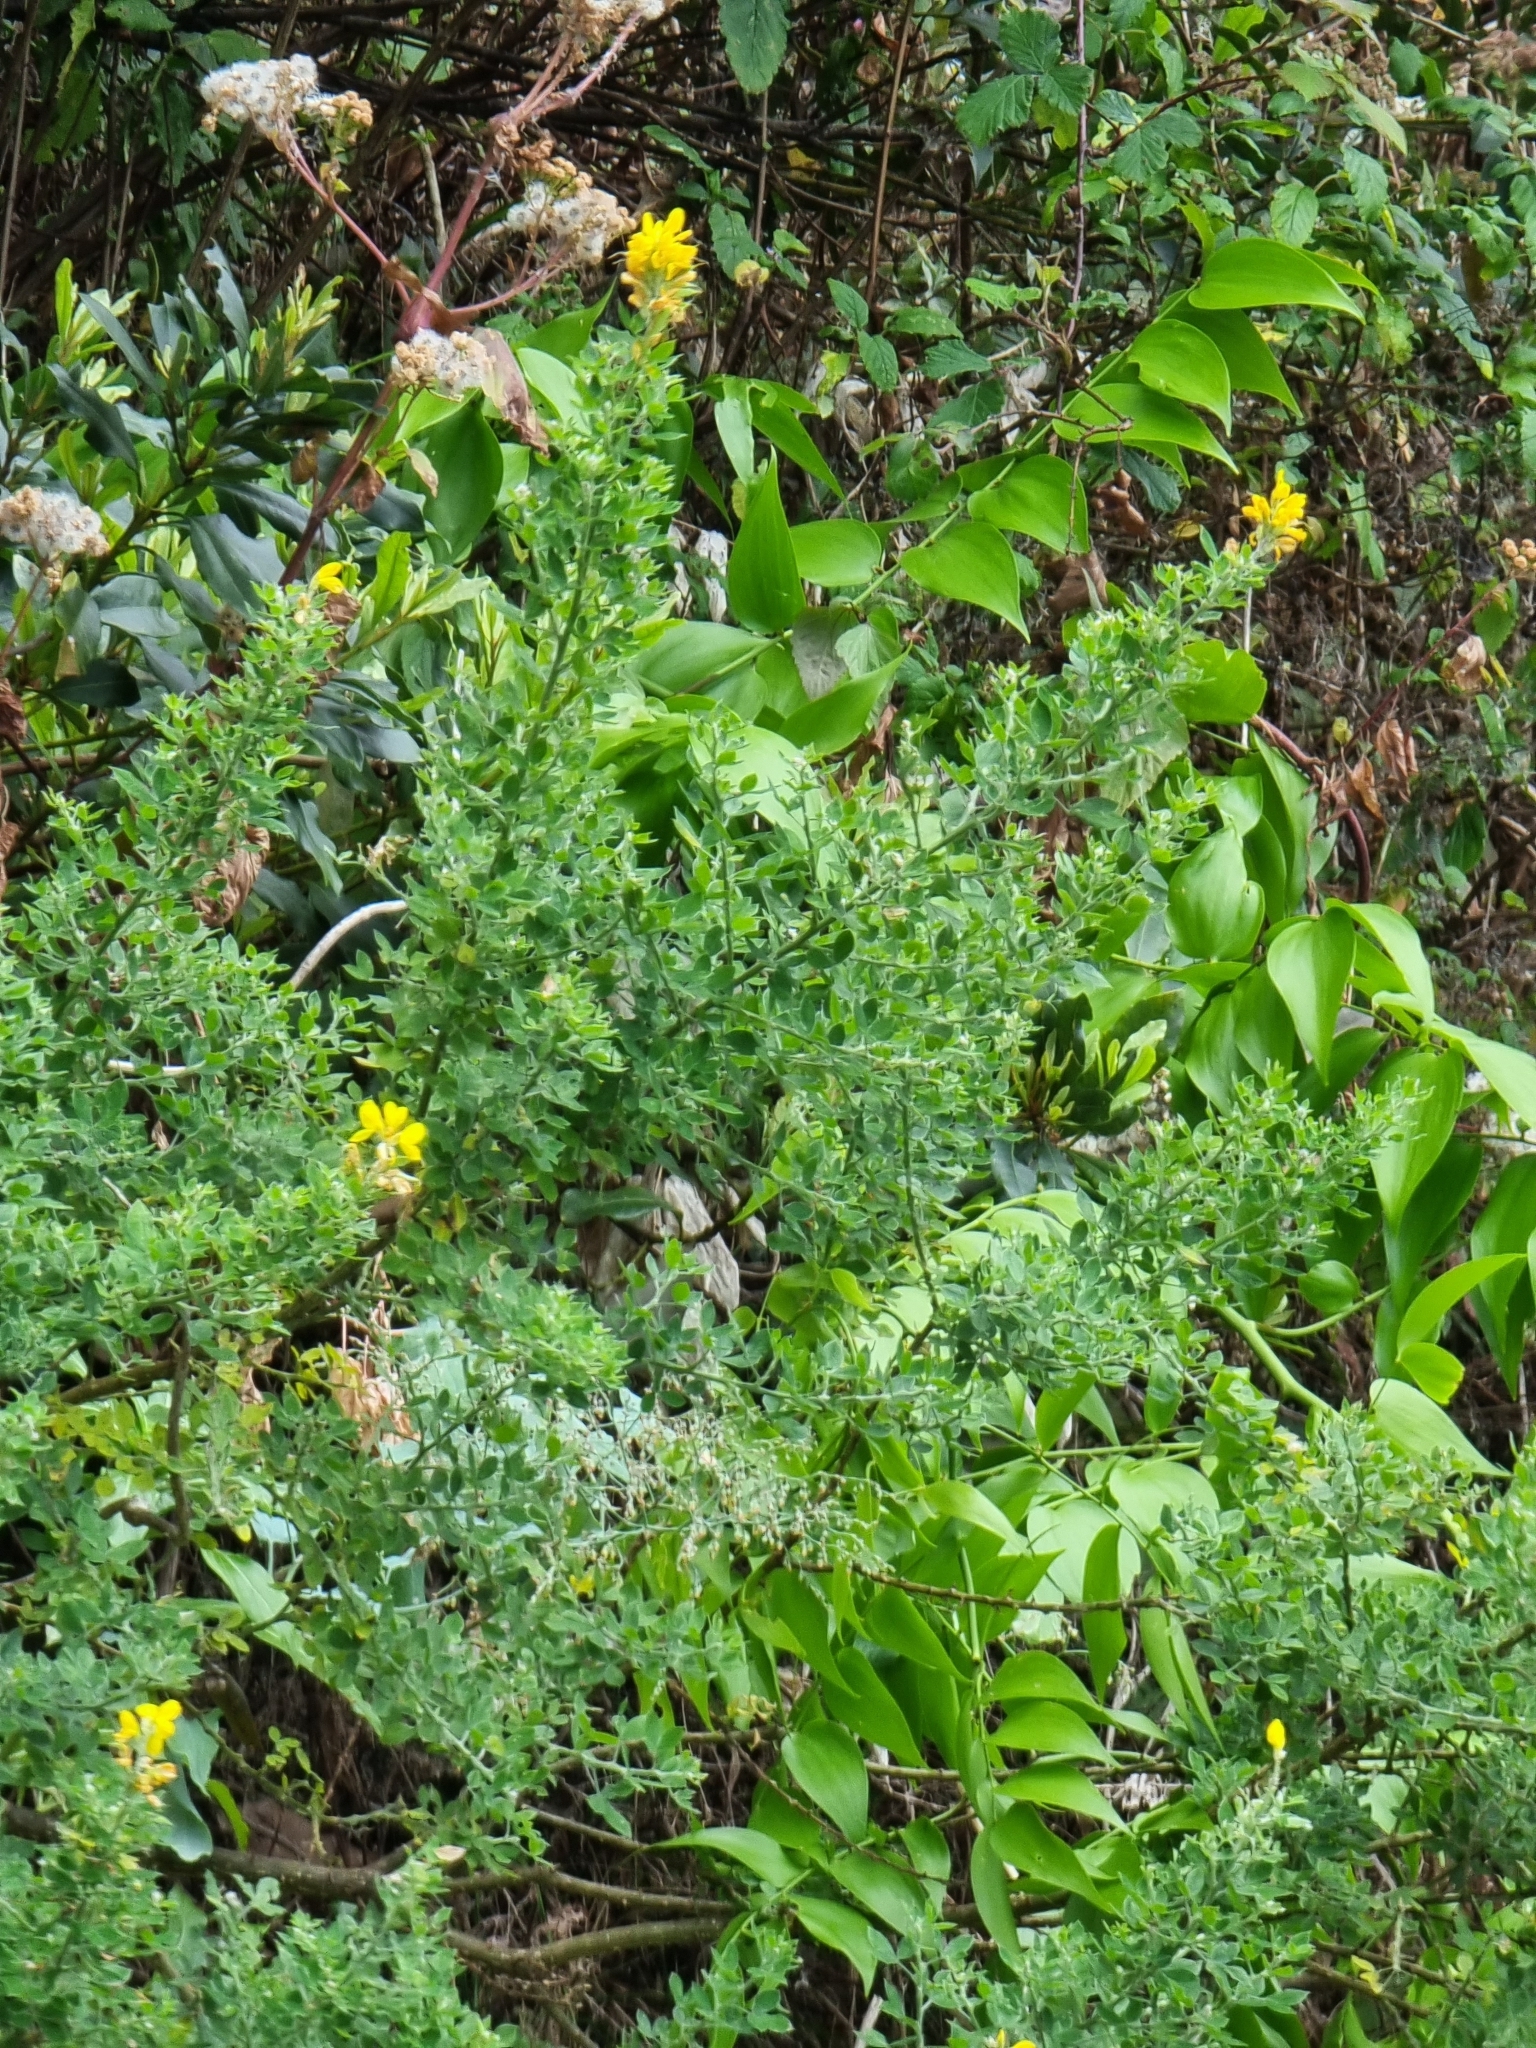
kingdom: Plantae
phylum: Tracheophyta
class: Magnoliopsida
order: Fabales
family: Fabaceae
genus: Genista
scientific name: Genista maderensis
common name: Madeira dyer's greenweed
